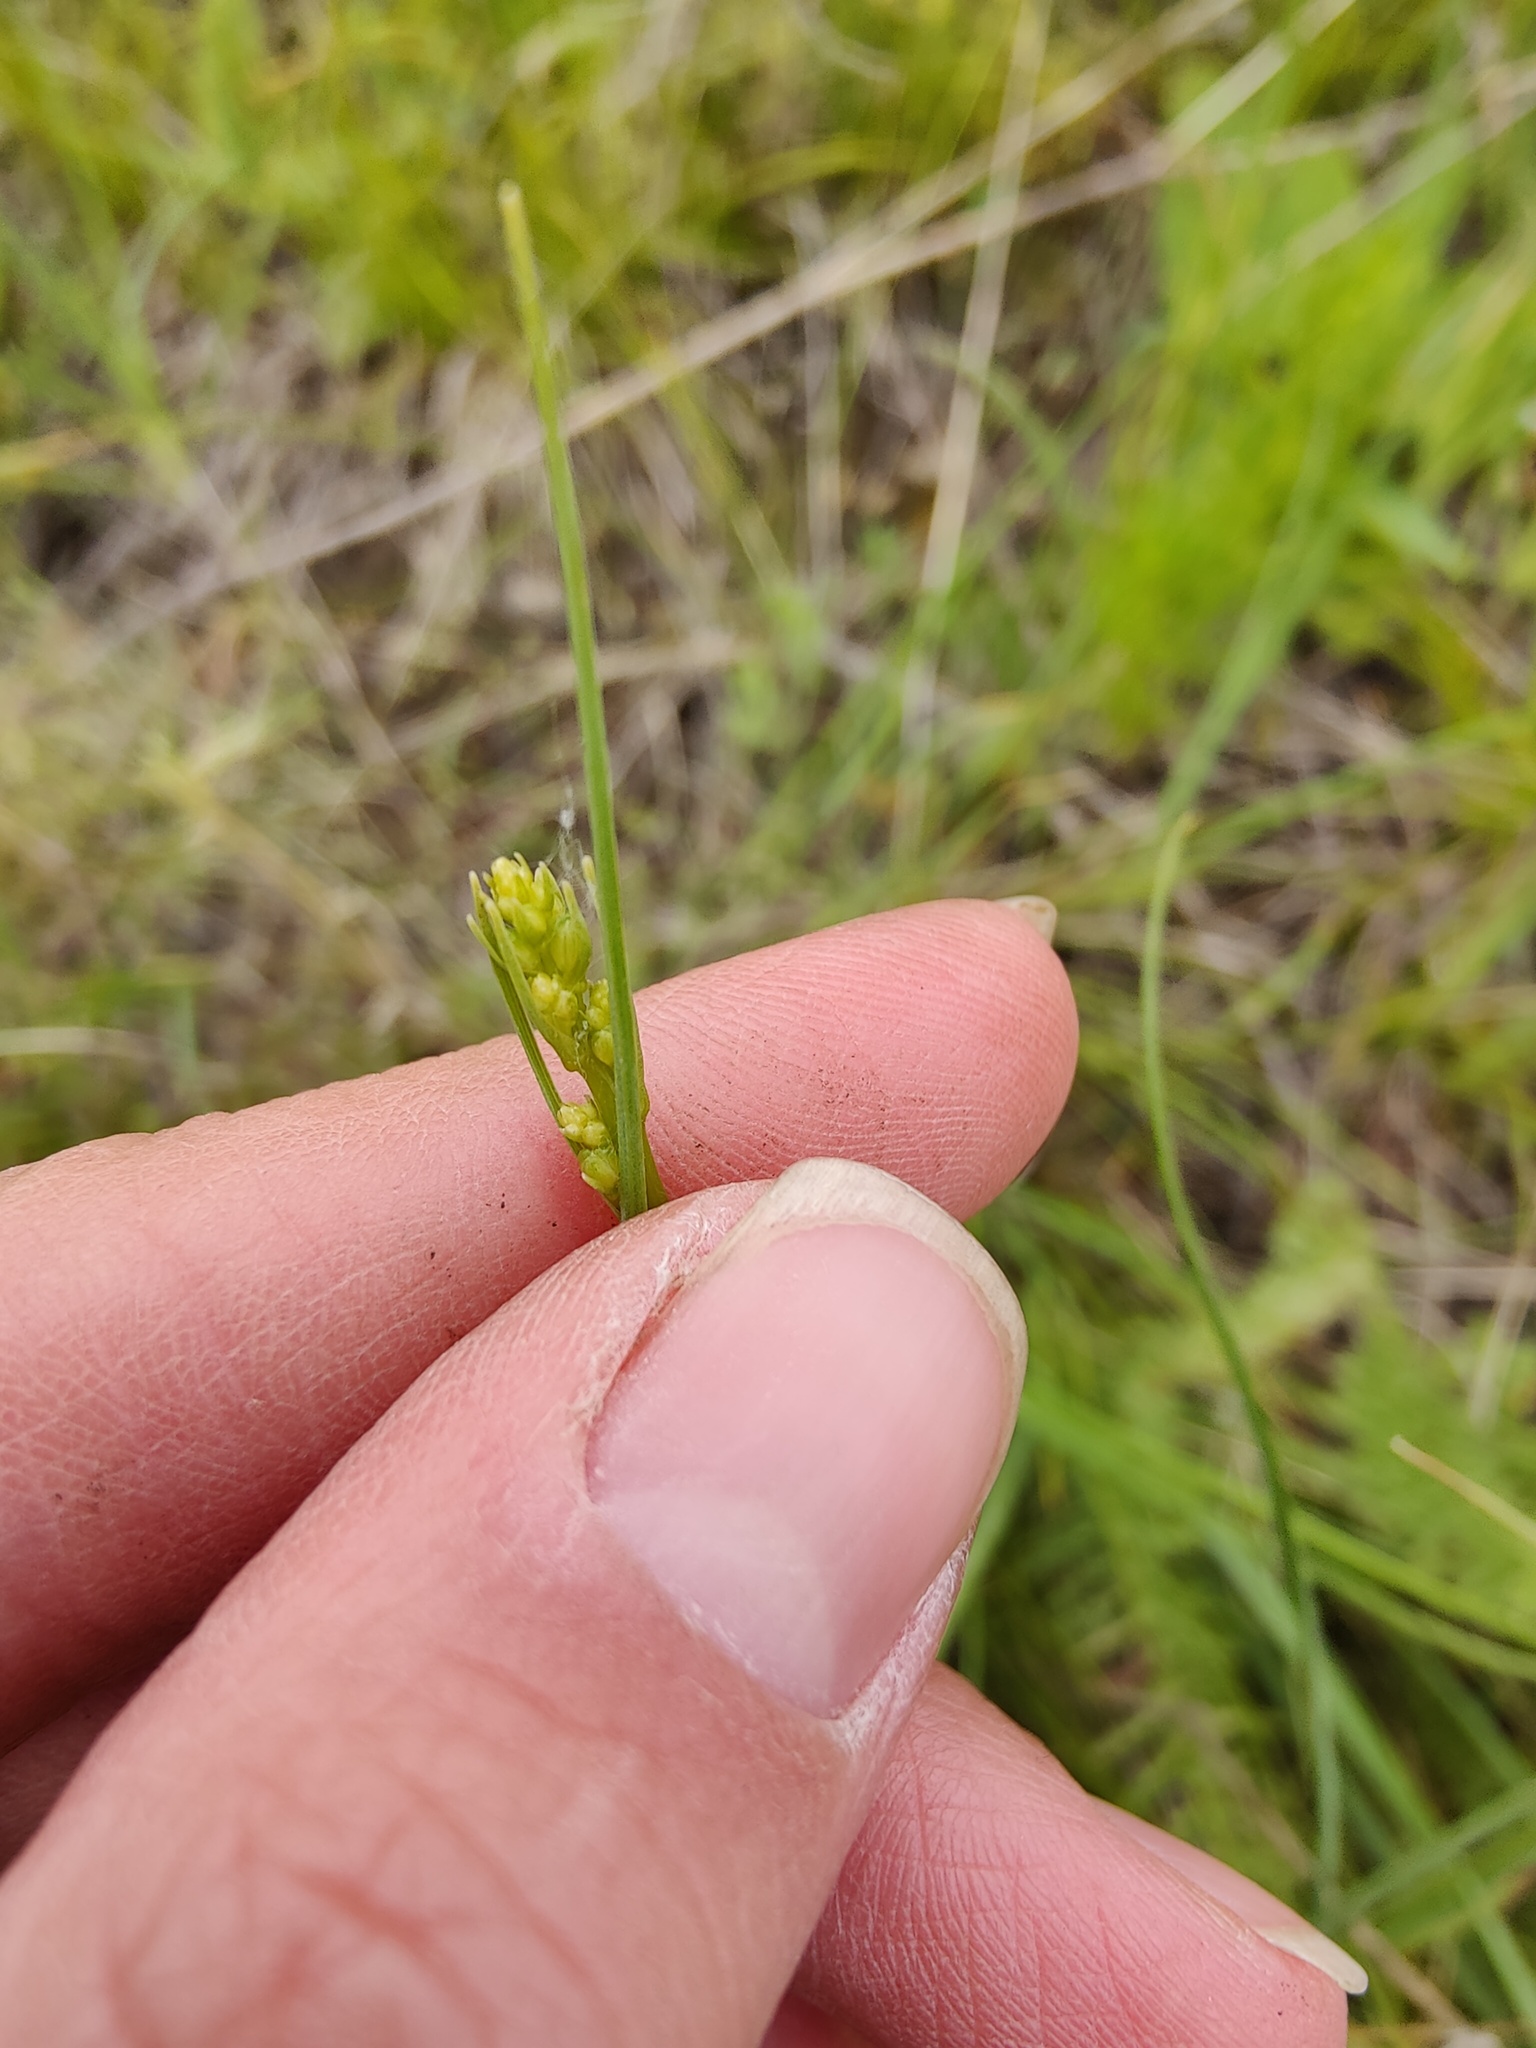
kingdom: Plantae
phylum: Tracheophyta
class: Liliopsida
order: Asparagales
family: Asparagaceae
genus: Anthericum
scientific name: Anthericum ramosum
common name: Branched st. bernard's-lily
